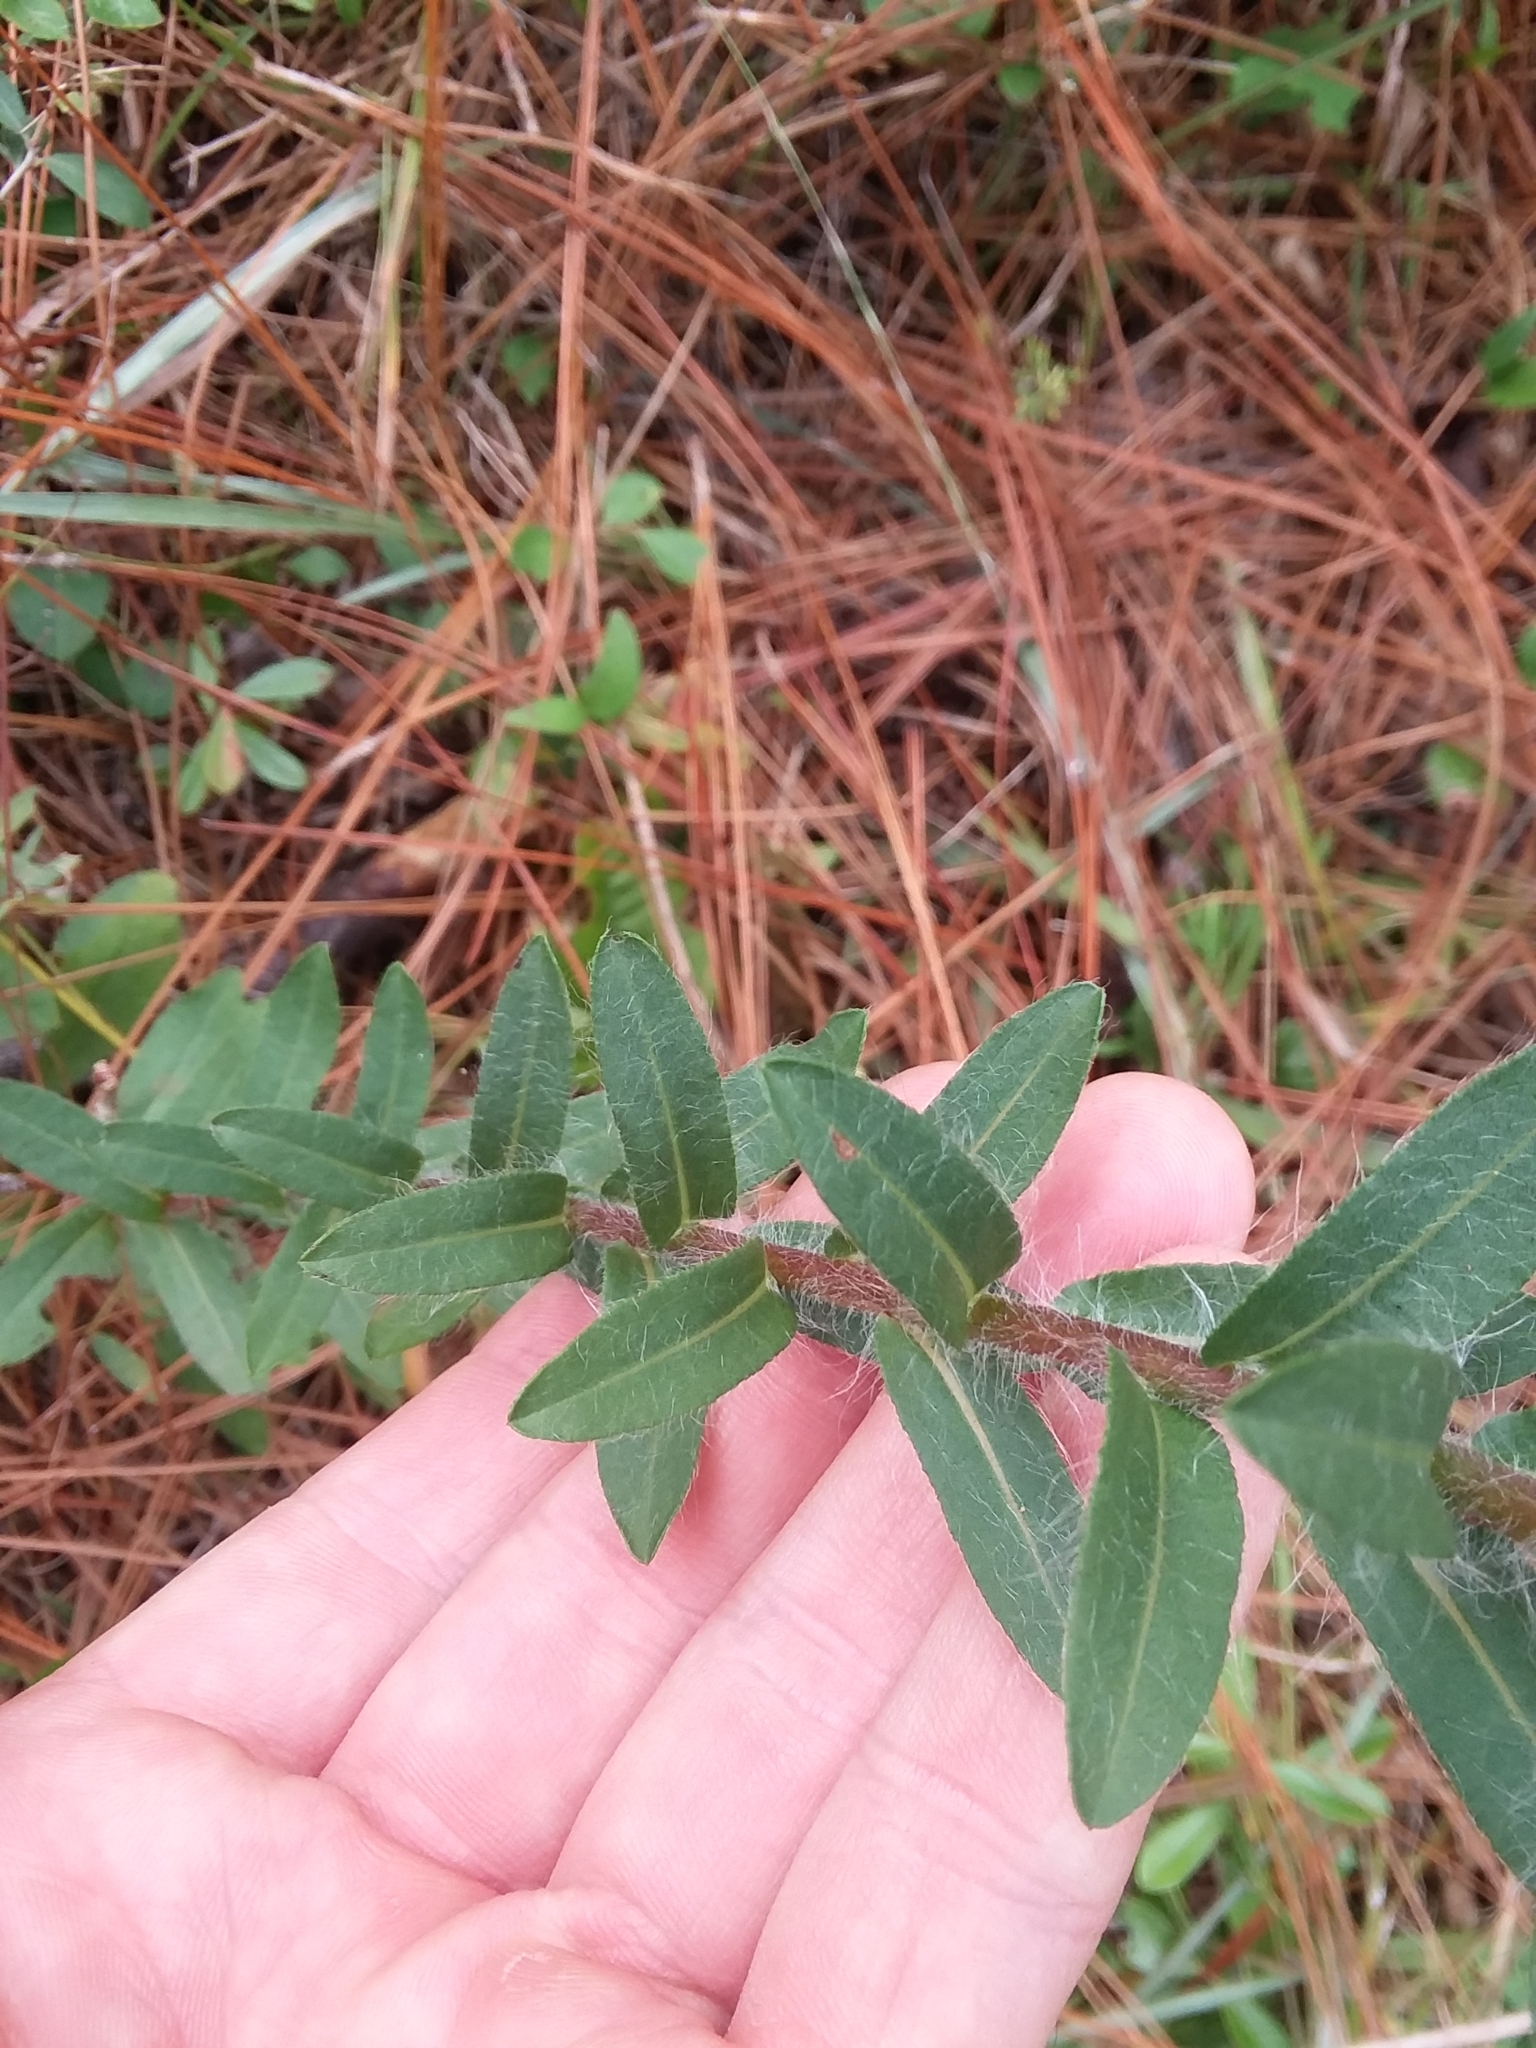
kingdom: Plantae
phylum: Tracheophyta
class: Magnoliopsida
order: Asterales
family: Asteraceae
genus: Chrysopsis
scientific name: Chrysopsis mariana
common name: Maryland golden-aster
